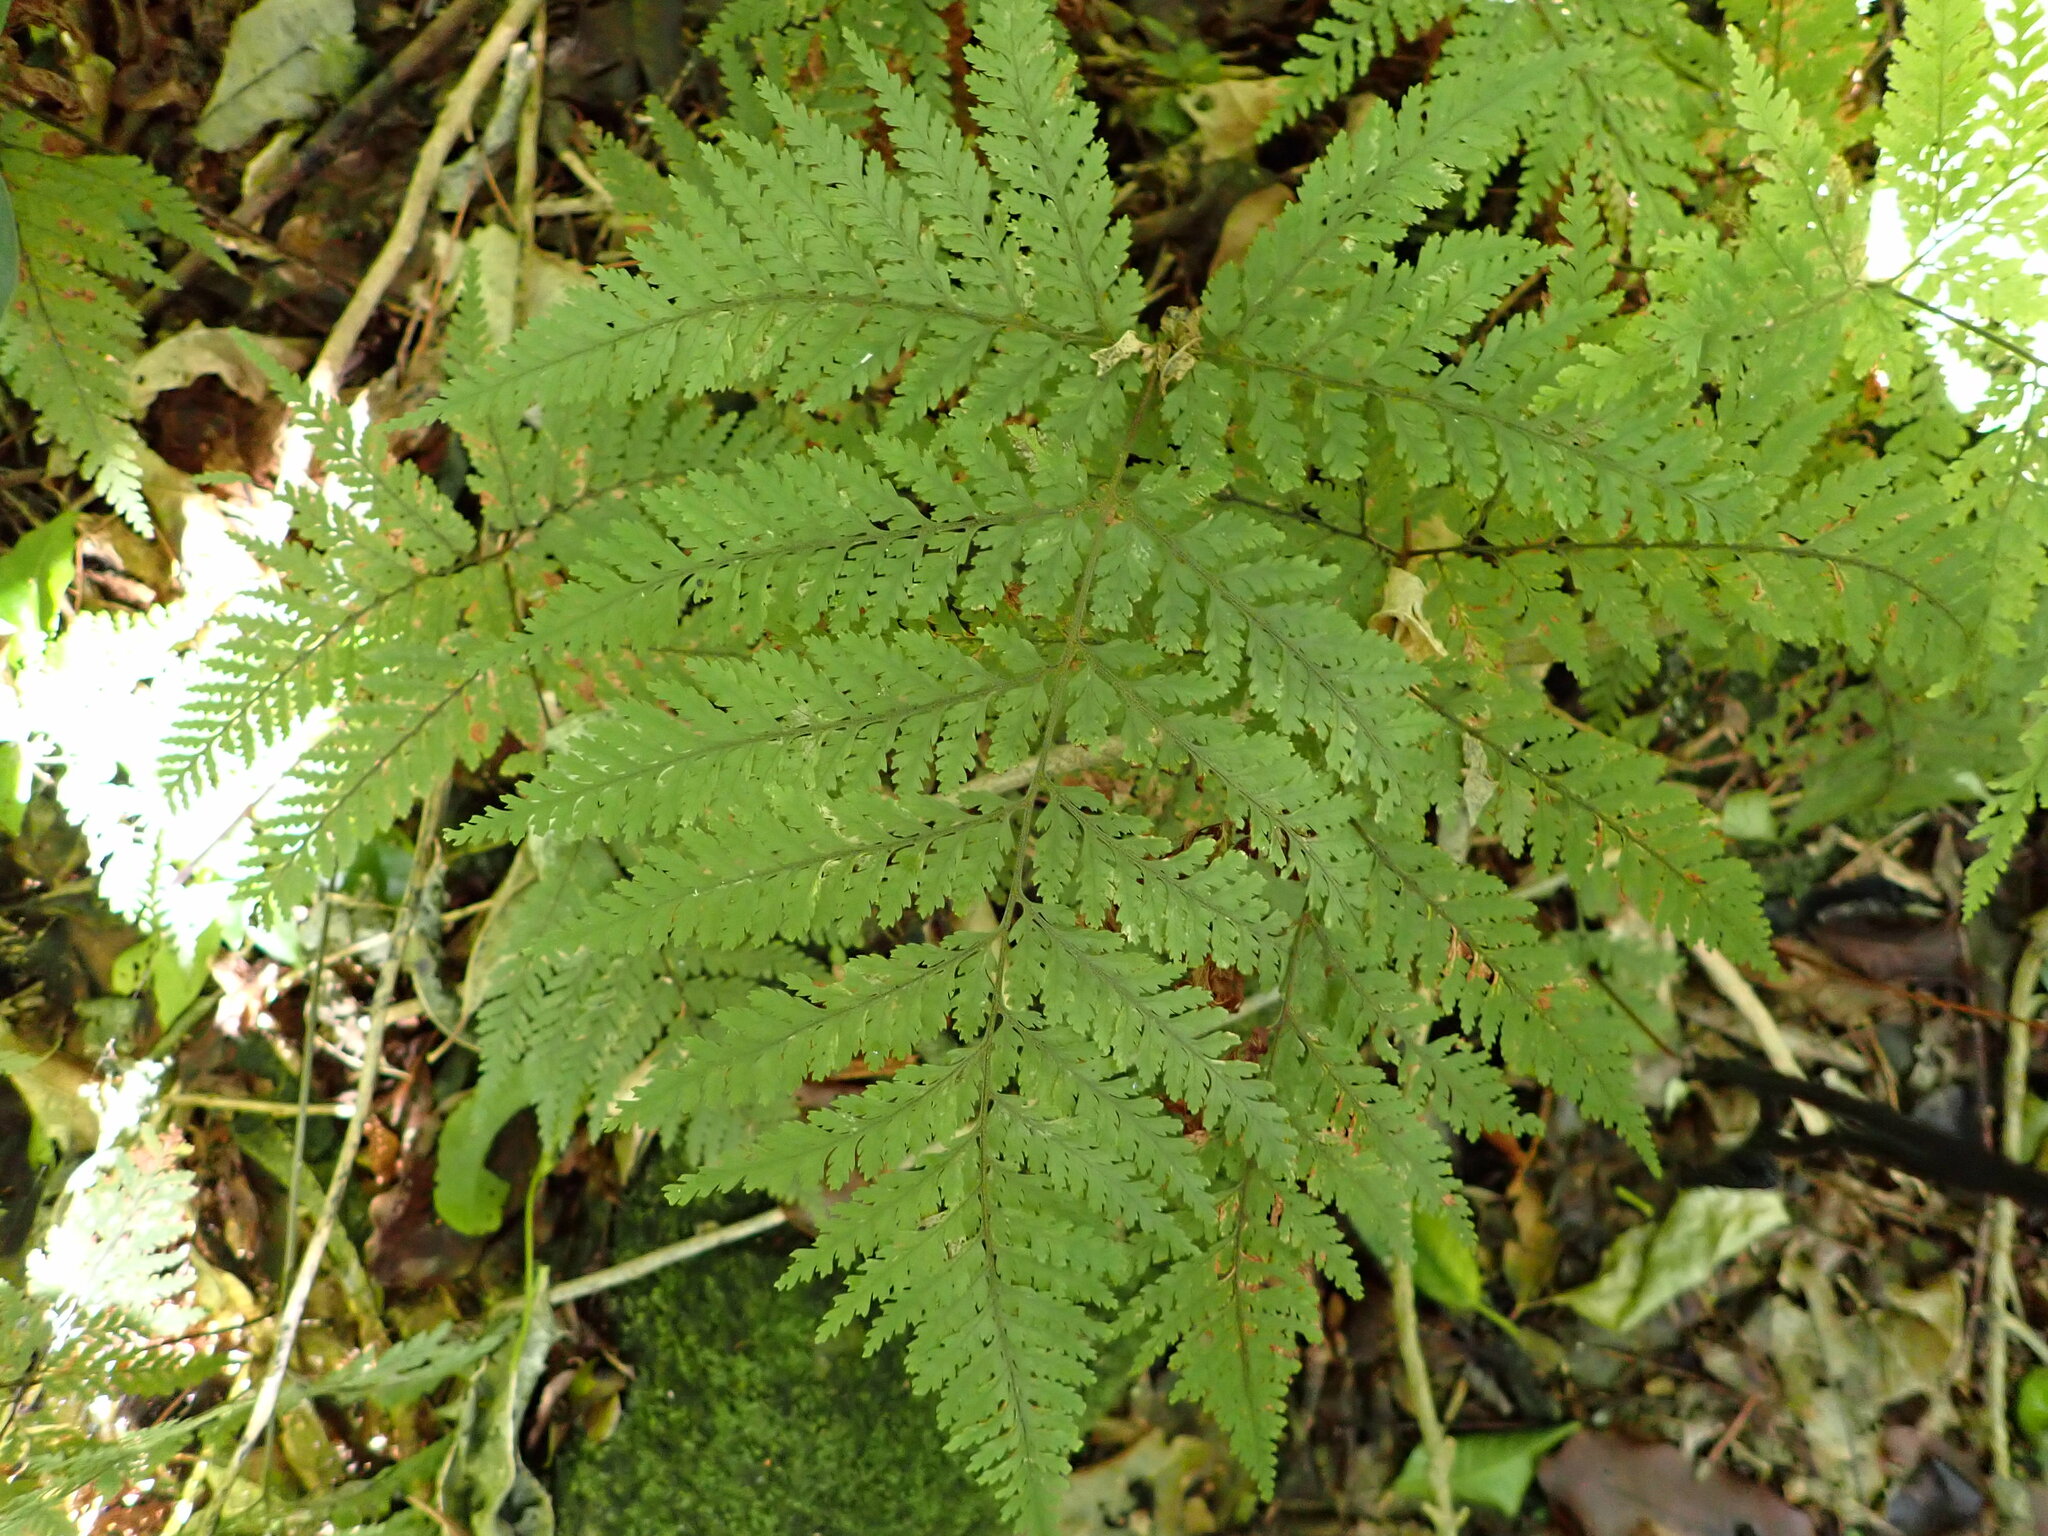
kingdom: Plantae
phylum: Tracheophyta
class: Polypodiopsida
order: Polypodiales
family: Dryopteridaceae
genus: Parapolystichum
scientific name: Parapolystichum microsorum
